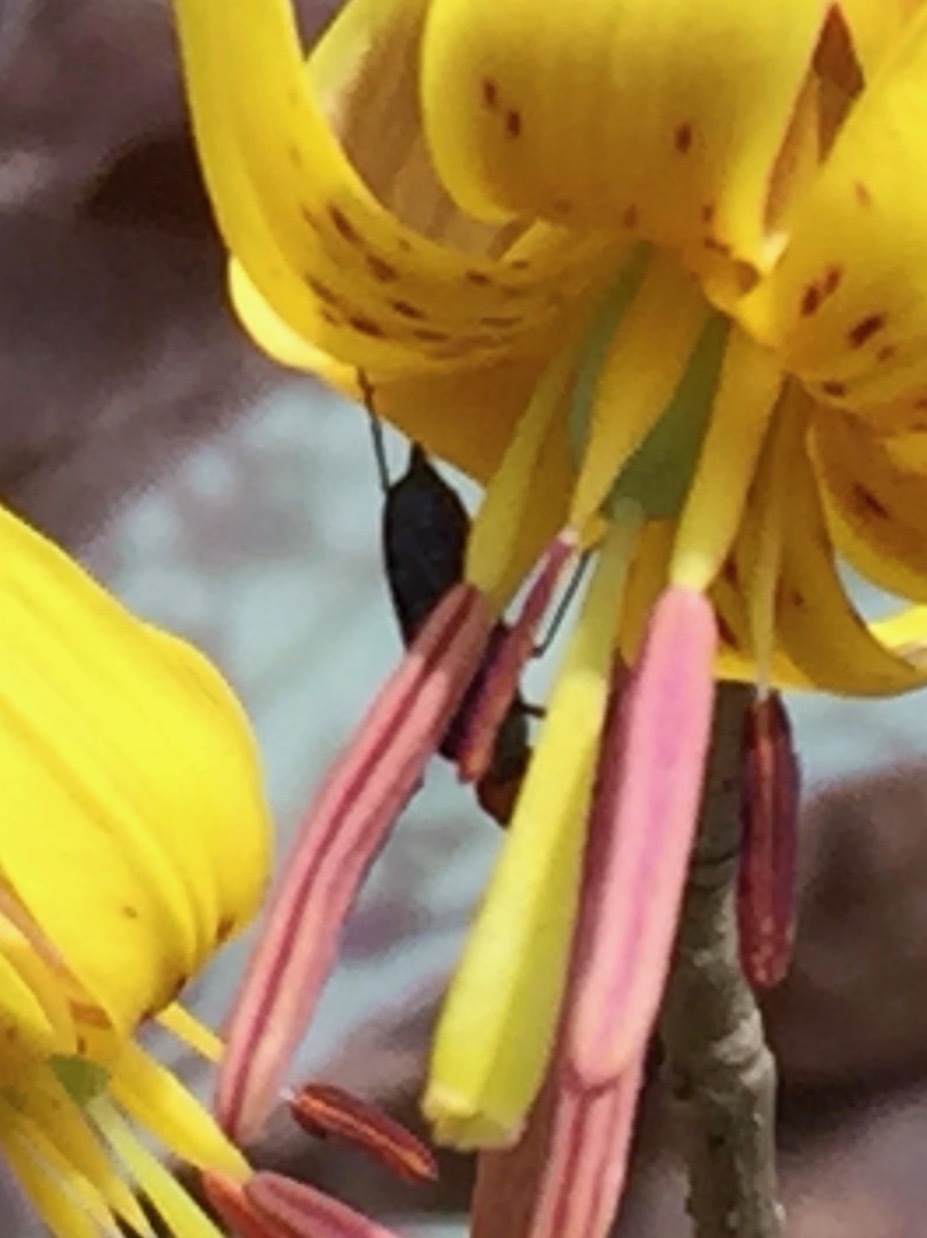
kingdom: Animalia
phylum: Arthropoda
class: Insecta
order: Coleoptera
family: Oedemeridae
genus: Ischnomera
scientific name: Ischnomera
